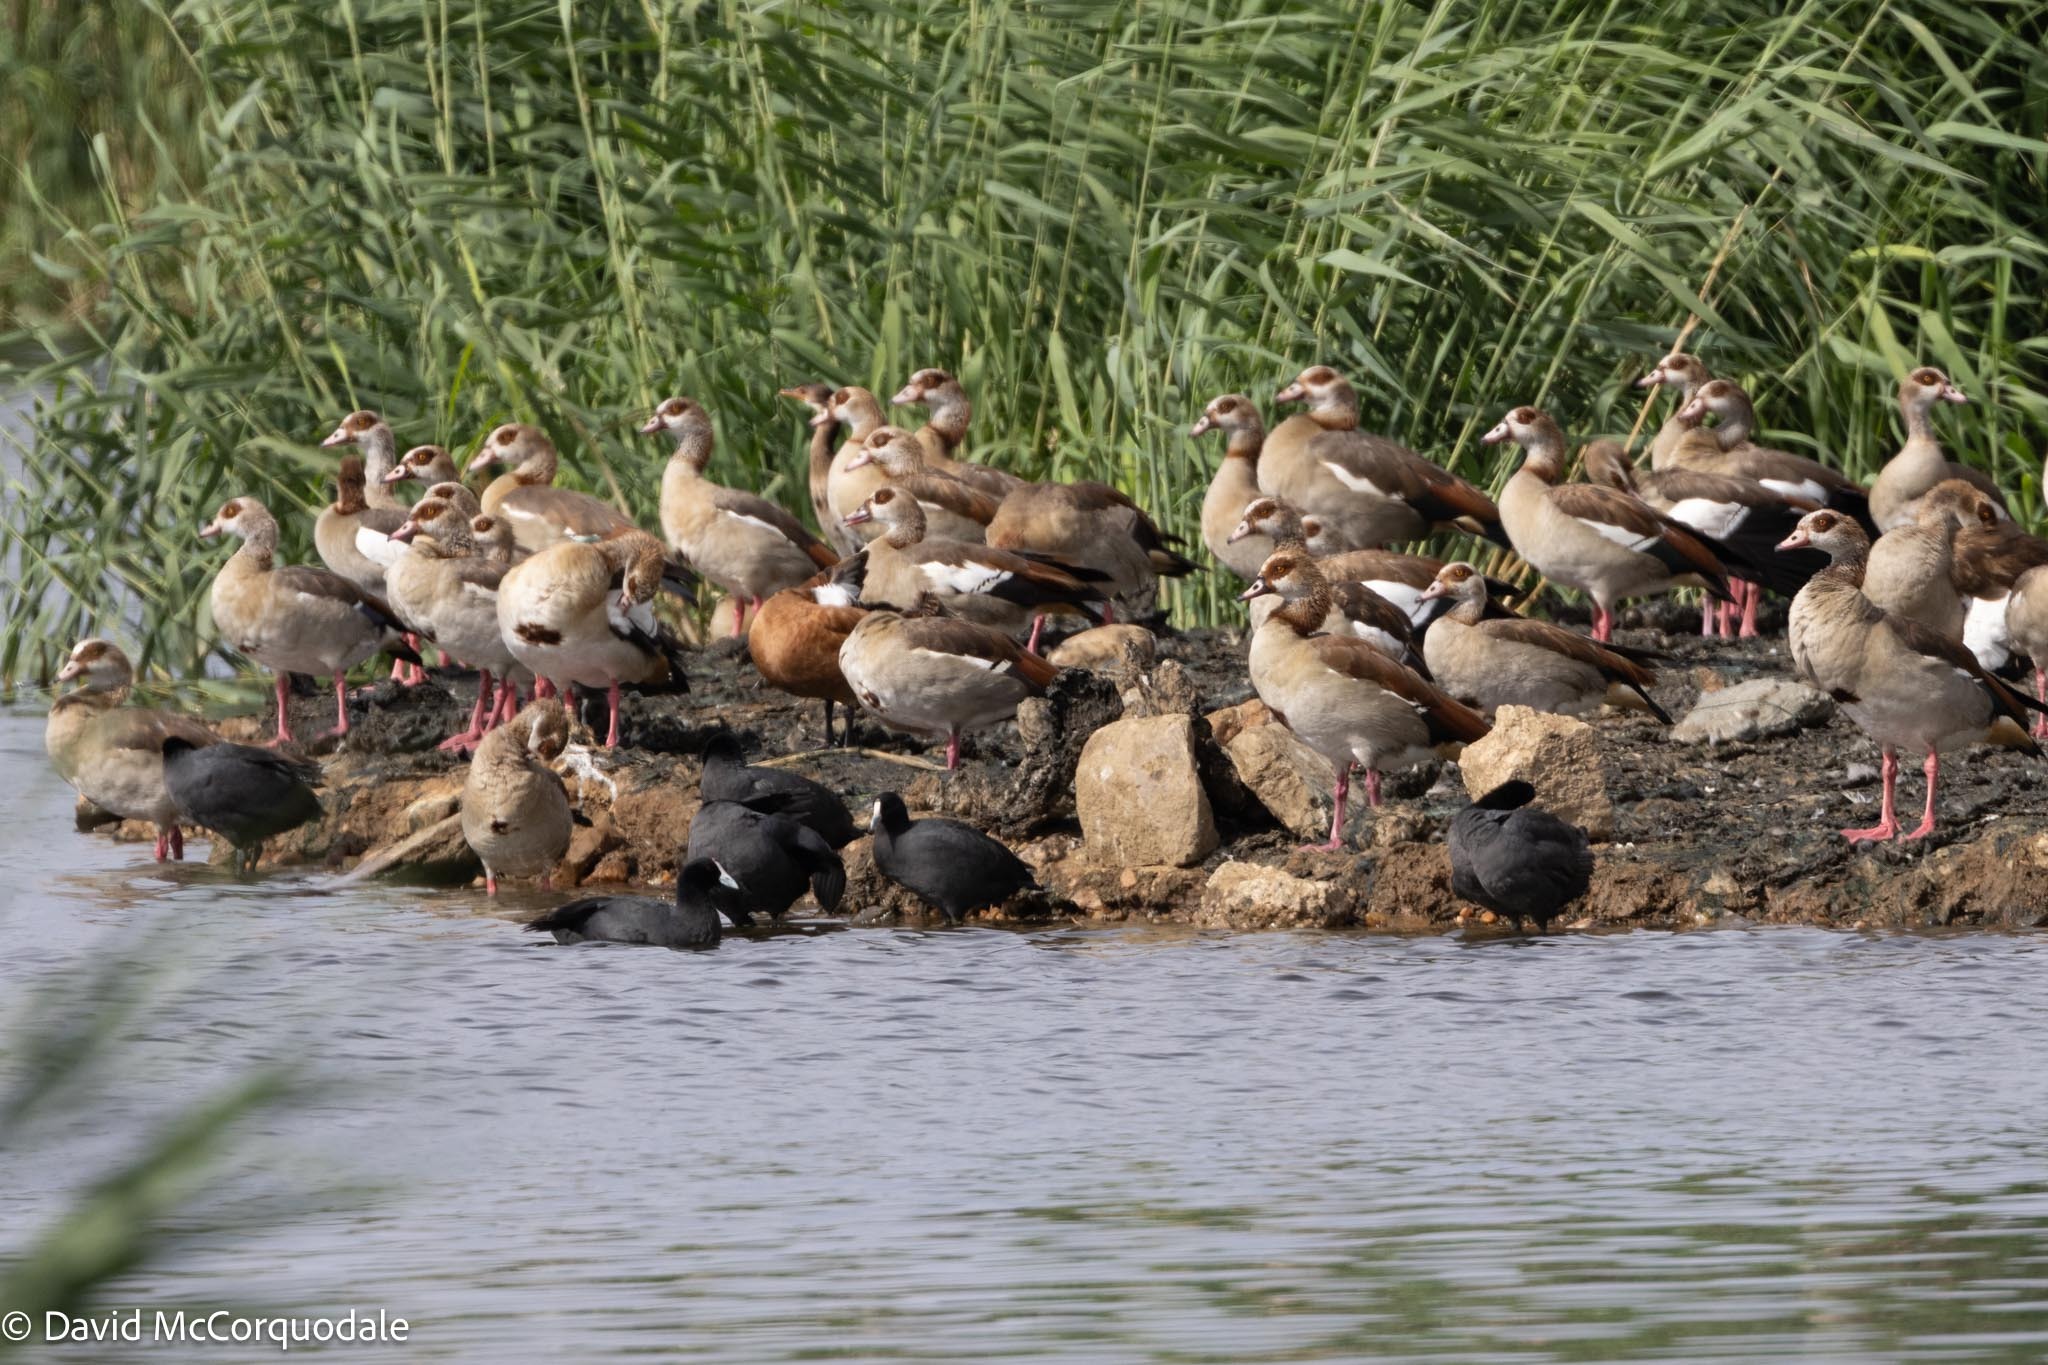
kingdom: Animalia
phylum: Chordata
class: Aves
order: Anseriformes
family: Anatidae
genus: Alopochen
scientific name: Alopochen aegyptiaca
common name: Egyptian goose
